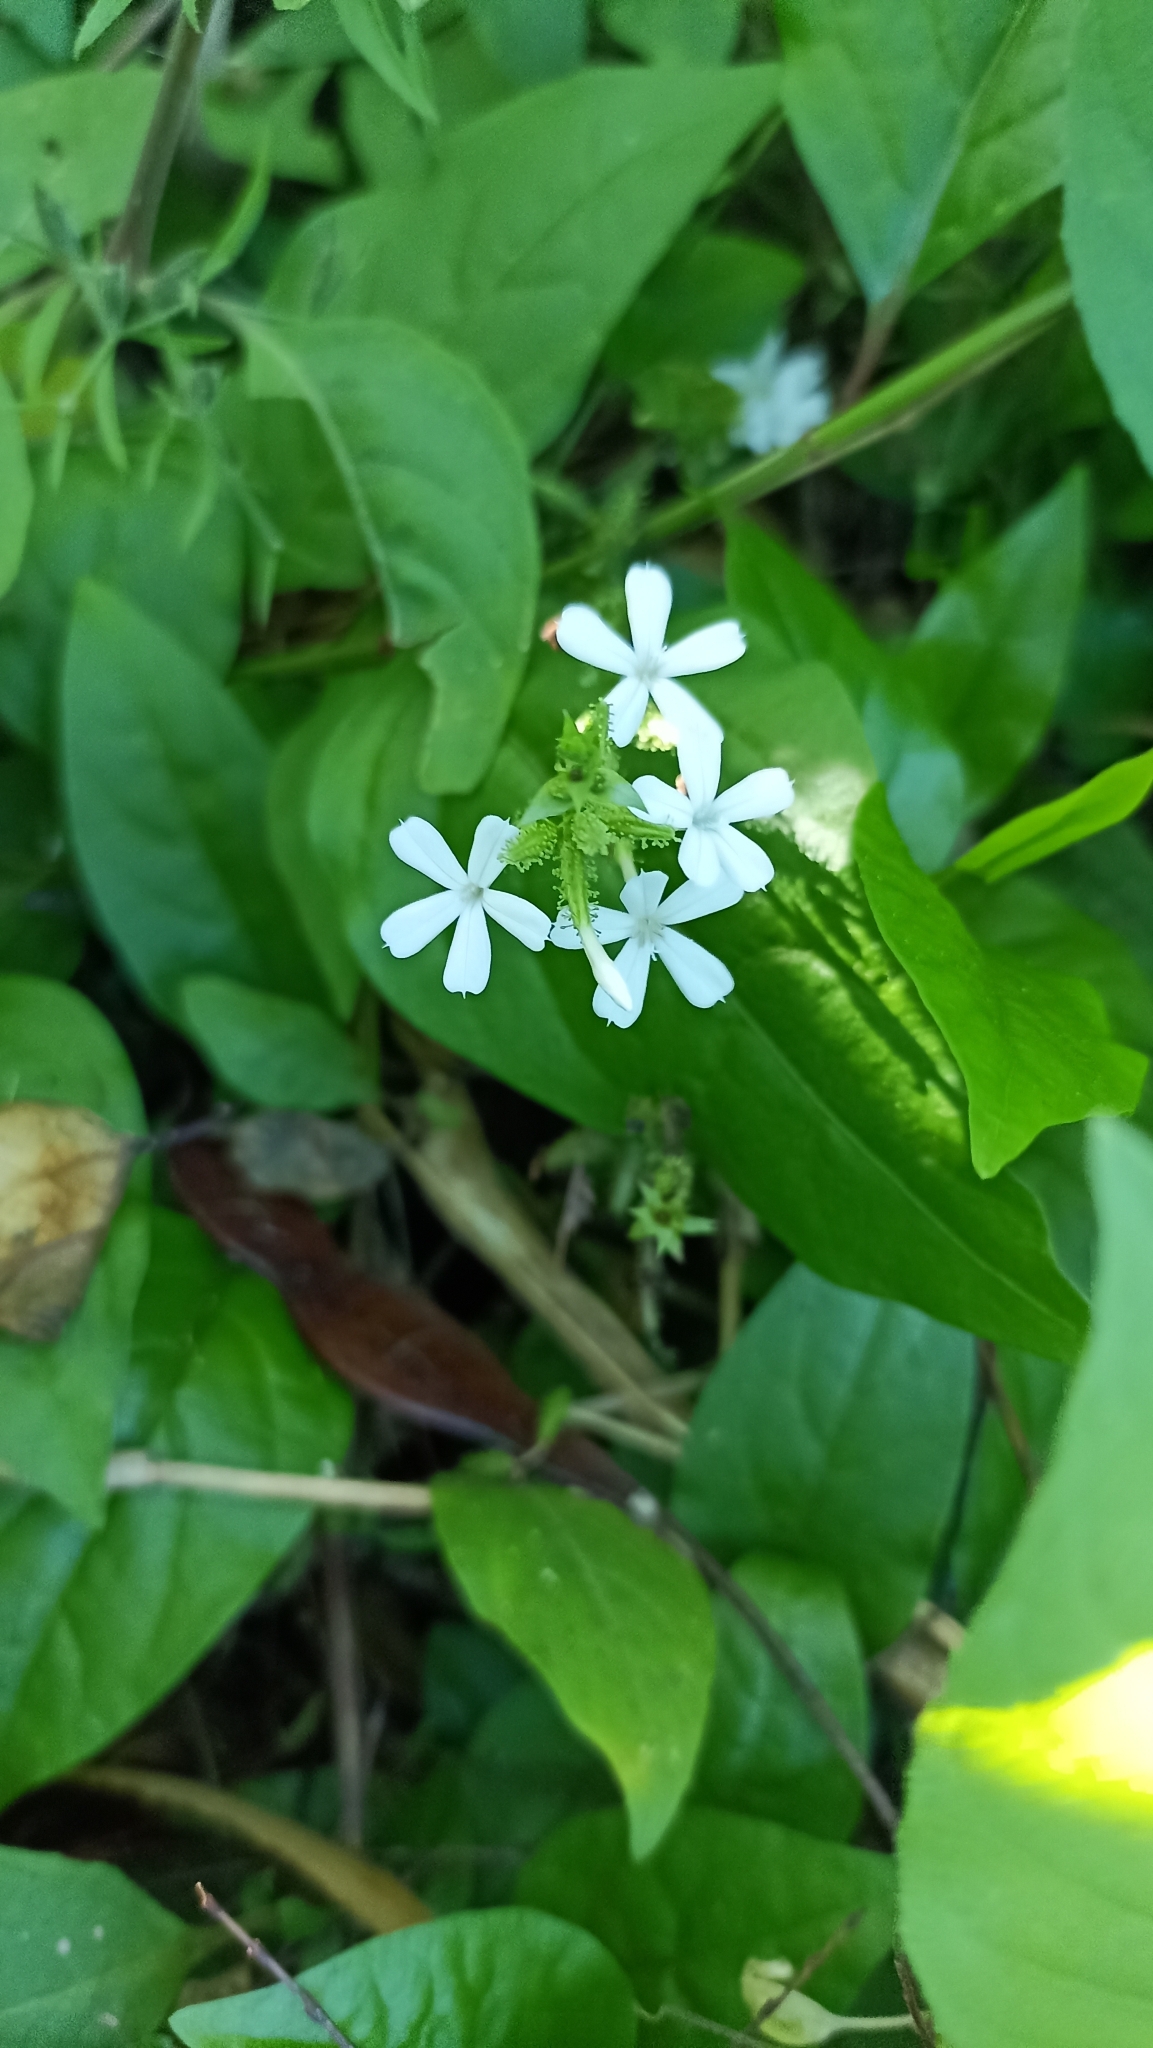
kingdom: Plantae
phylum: Tracheophyta
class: Magnoliopsida
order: Caryophyllales
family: Plumbaginaceae
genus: Plumbago
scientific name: Plumbago zeylanica
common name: Doctorbush
